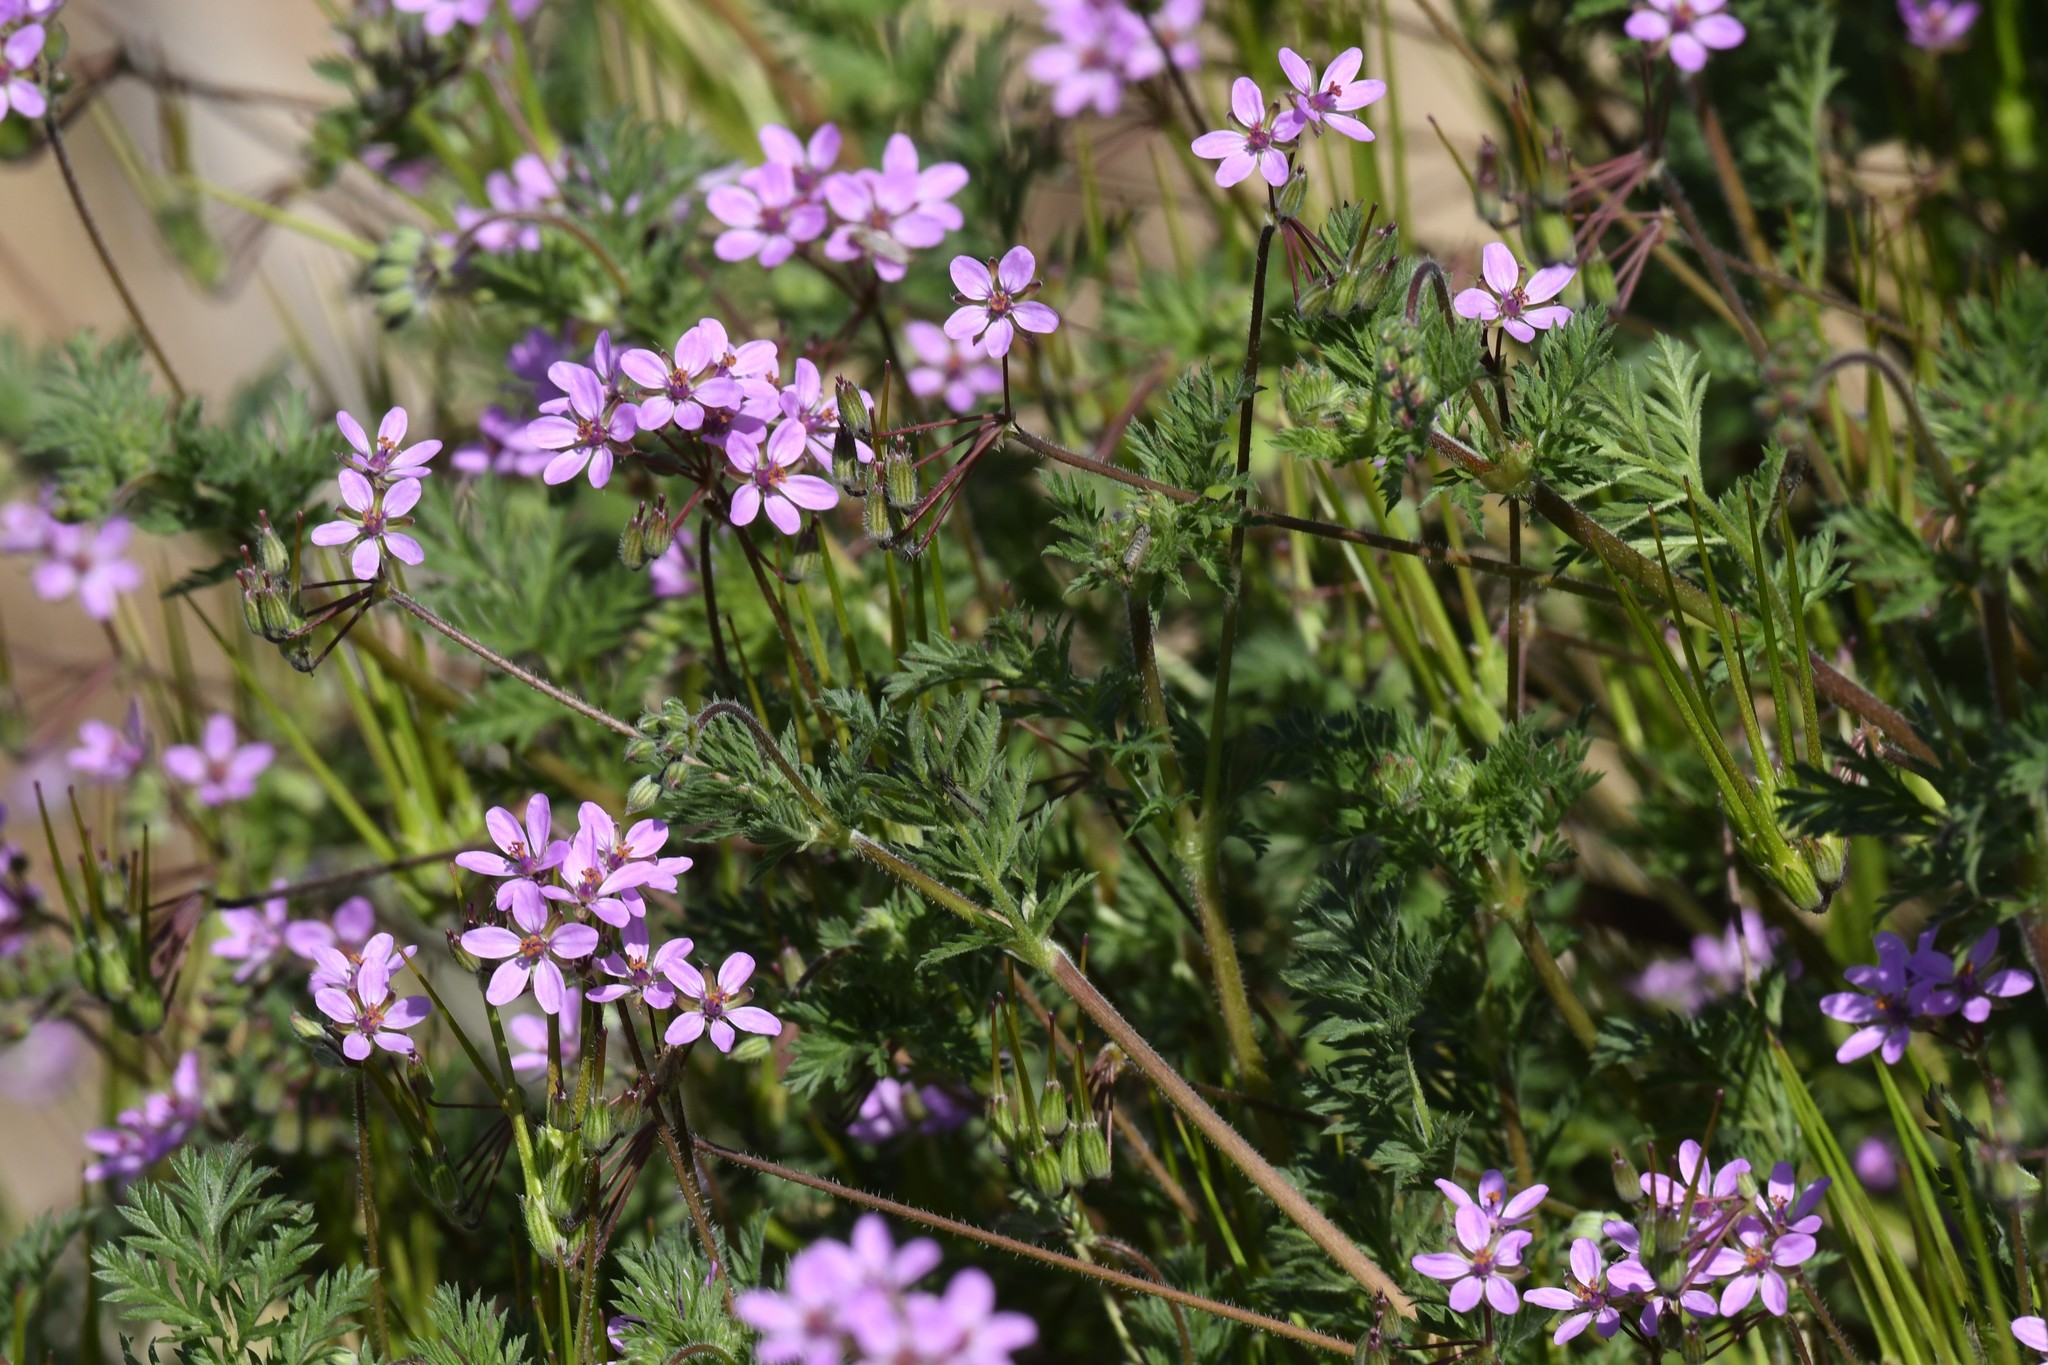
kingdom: Plantae
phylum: Tracheophyta
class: Magnoliopsida
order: Geraniales
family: Geraniaceae
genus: Erodium
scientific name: Erodium cicutarium
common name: Common stork's-bill
